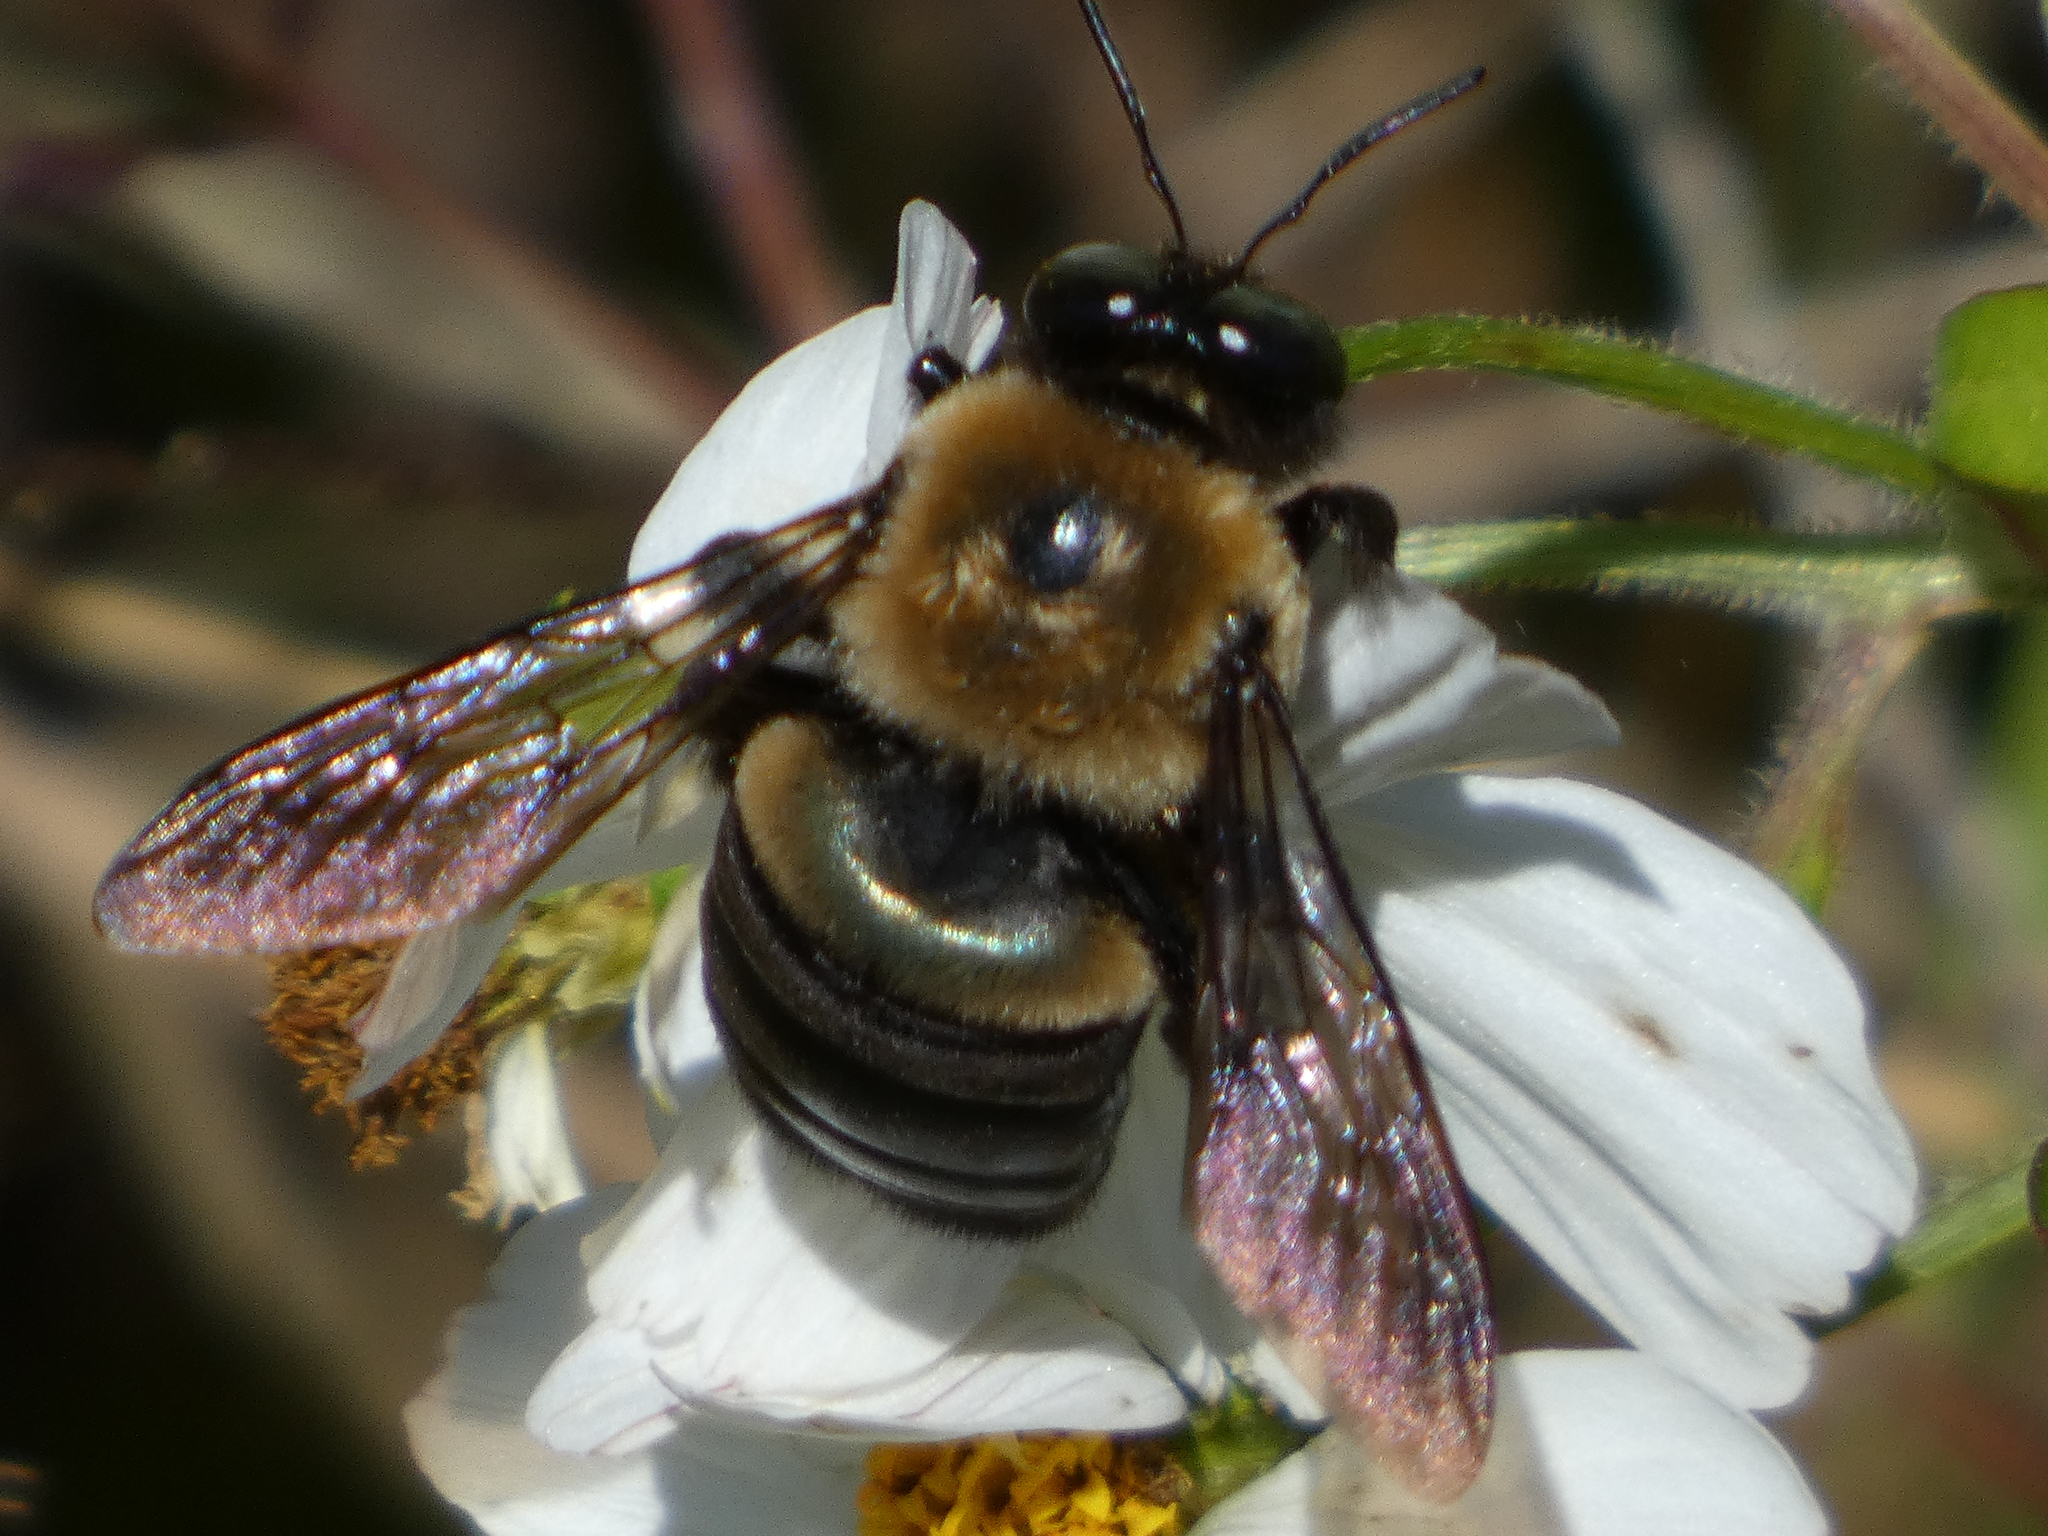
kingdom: Animalia
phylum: Arthropoda
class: Insecta
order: Hymenoptera
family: Apidae
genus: Xylocopa
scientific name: Xylocopa virginica
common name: Carpenter bee
